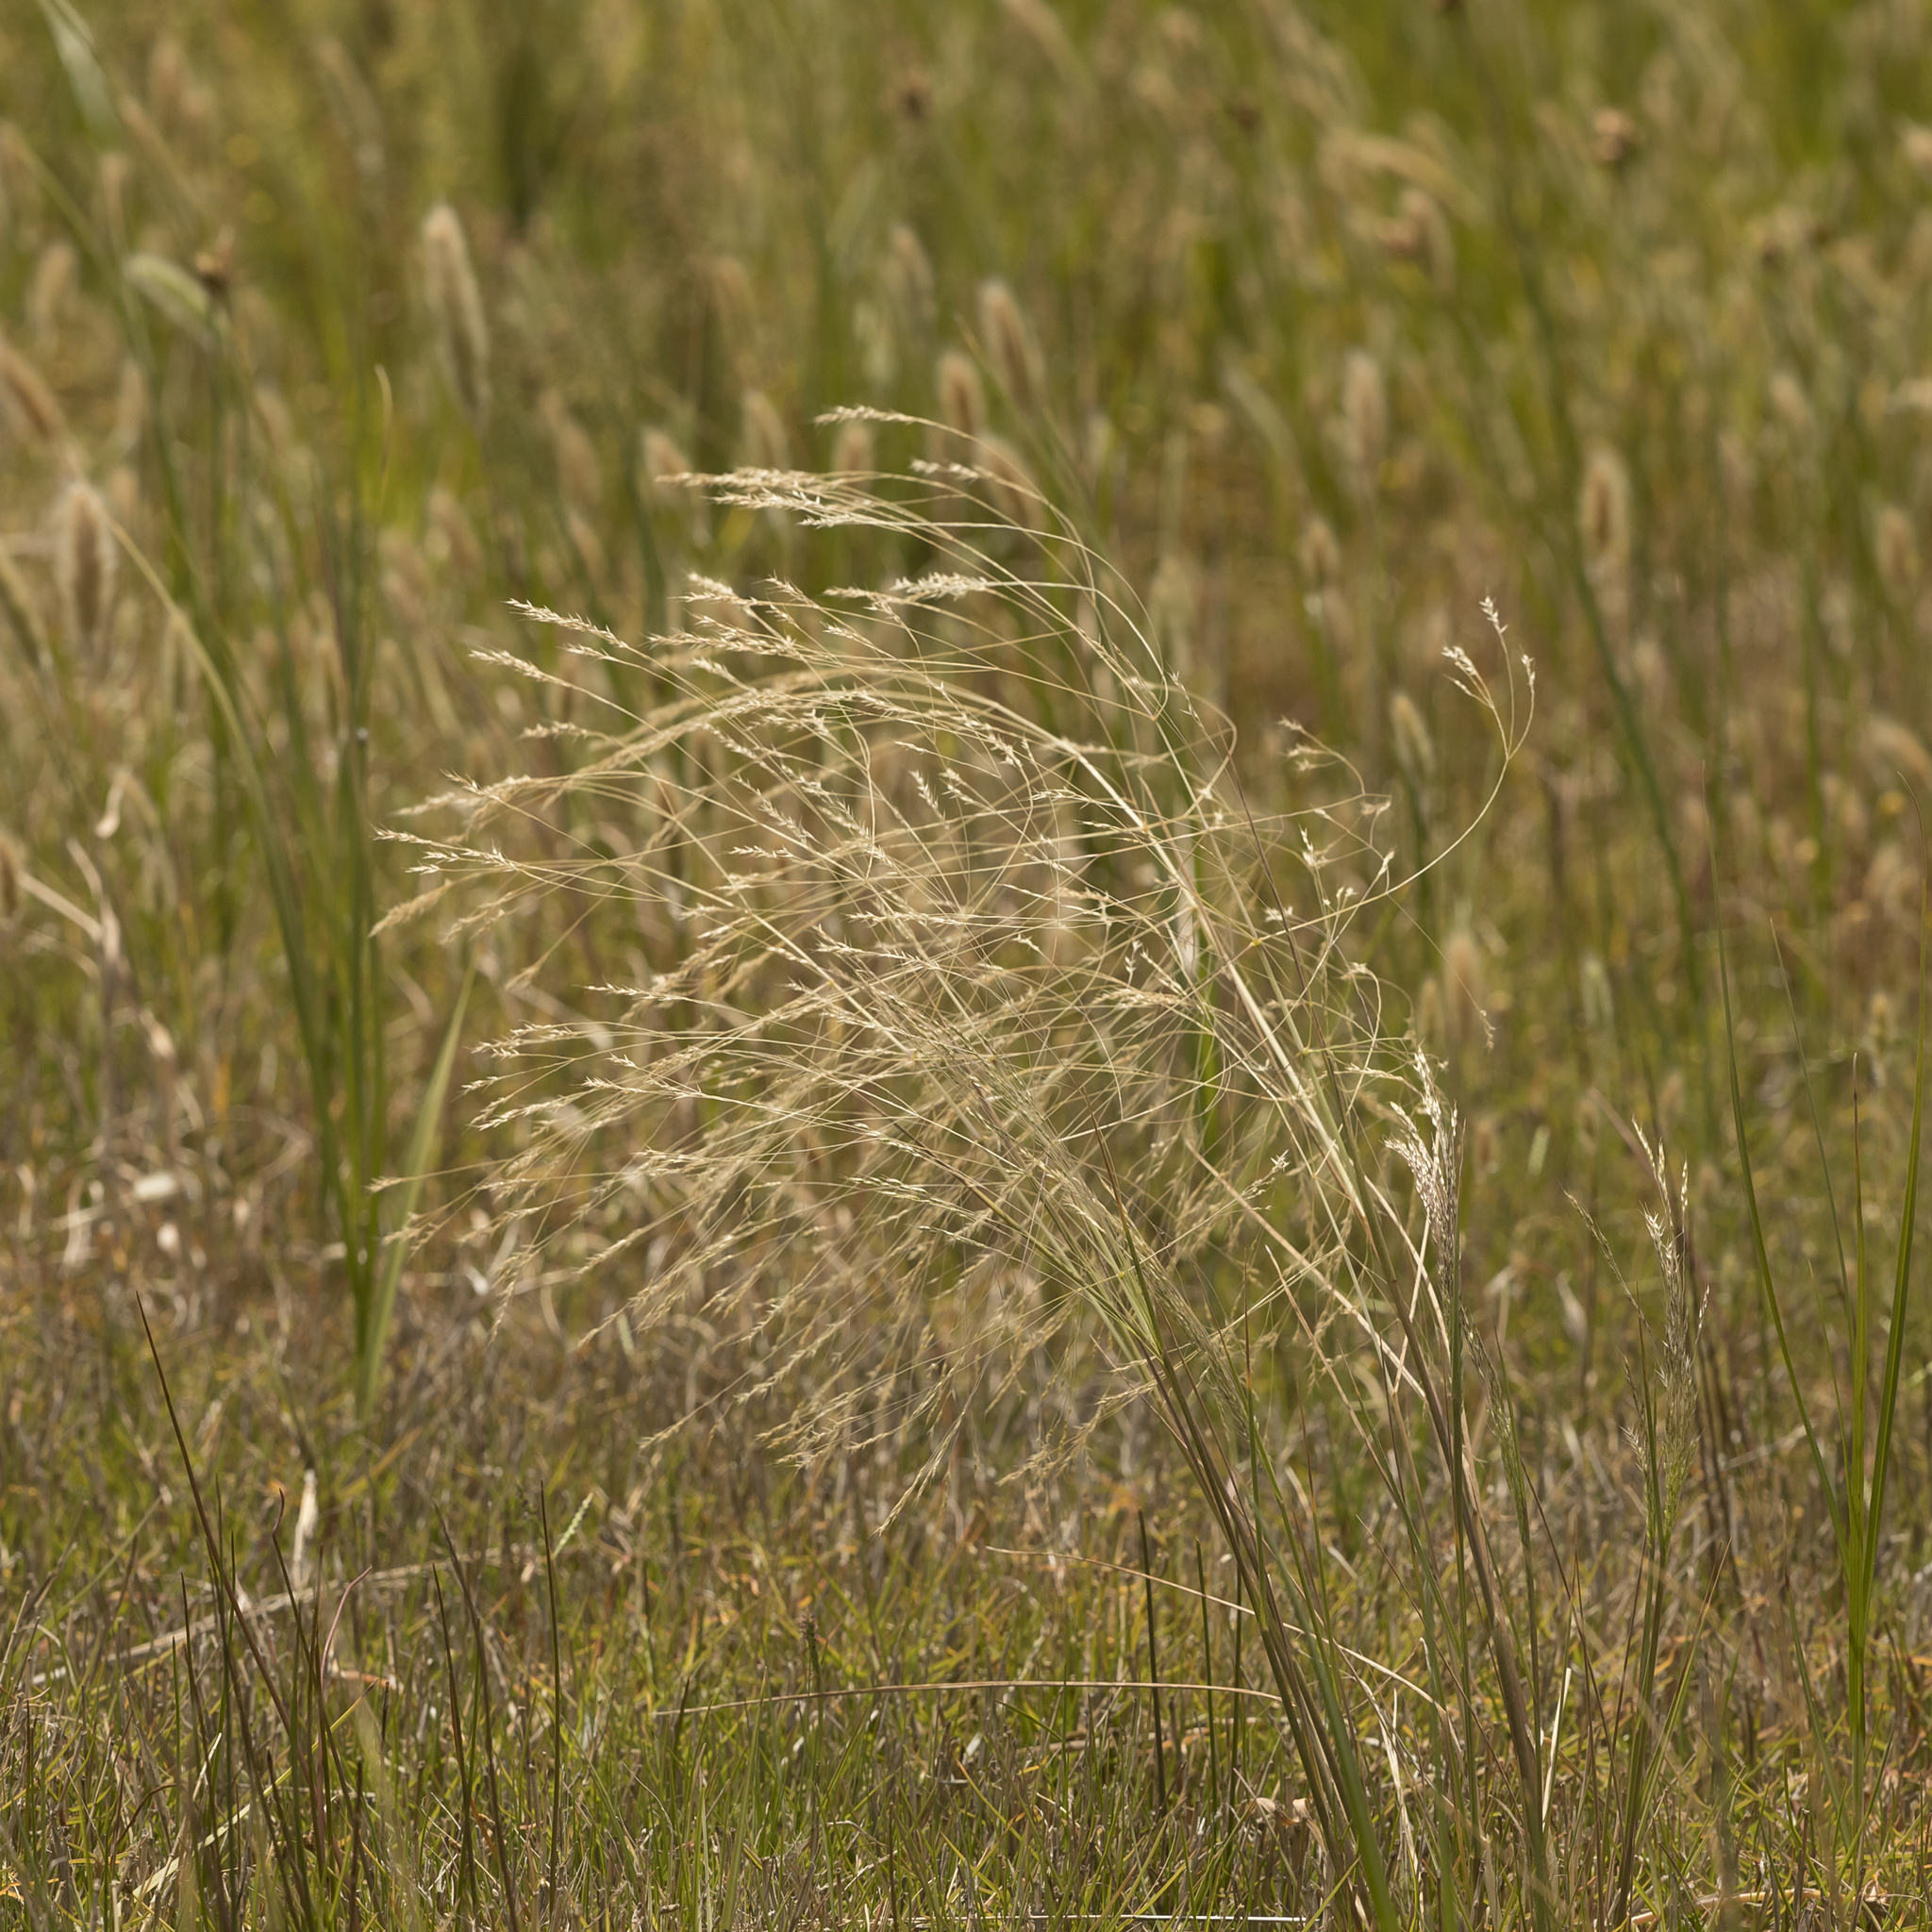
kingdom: Plantae
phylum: Tracheophyta
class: Liliopsida
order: Poales
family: Poaceae
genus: Lachnagrostis
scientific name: Lachnagrostis filiformis
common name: Bentgrass
